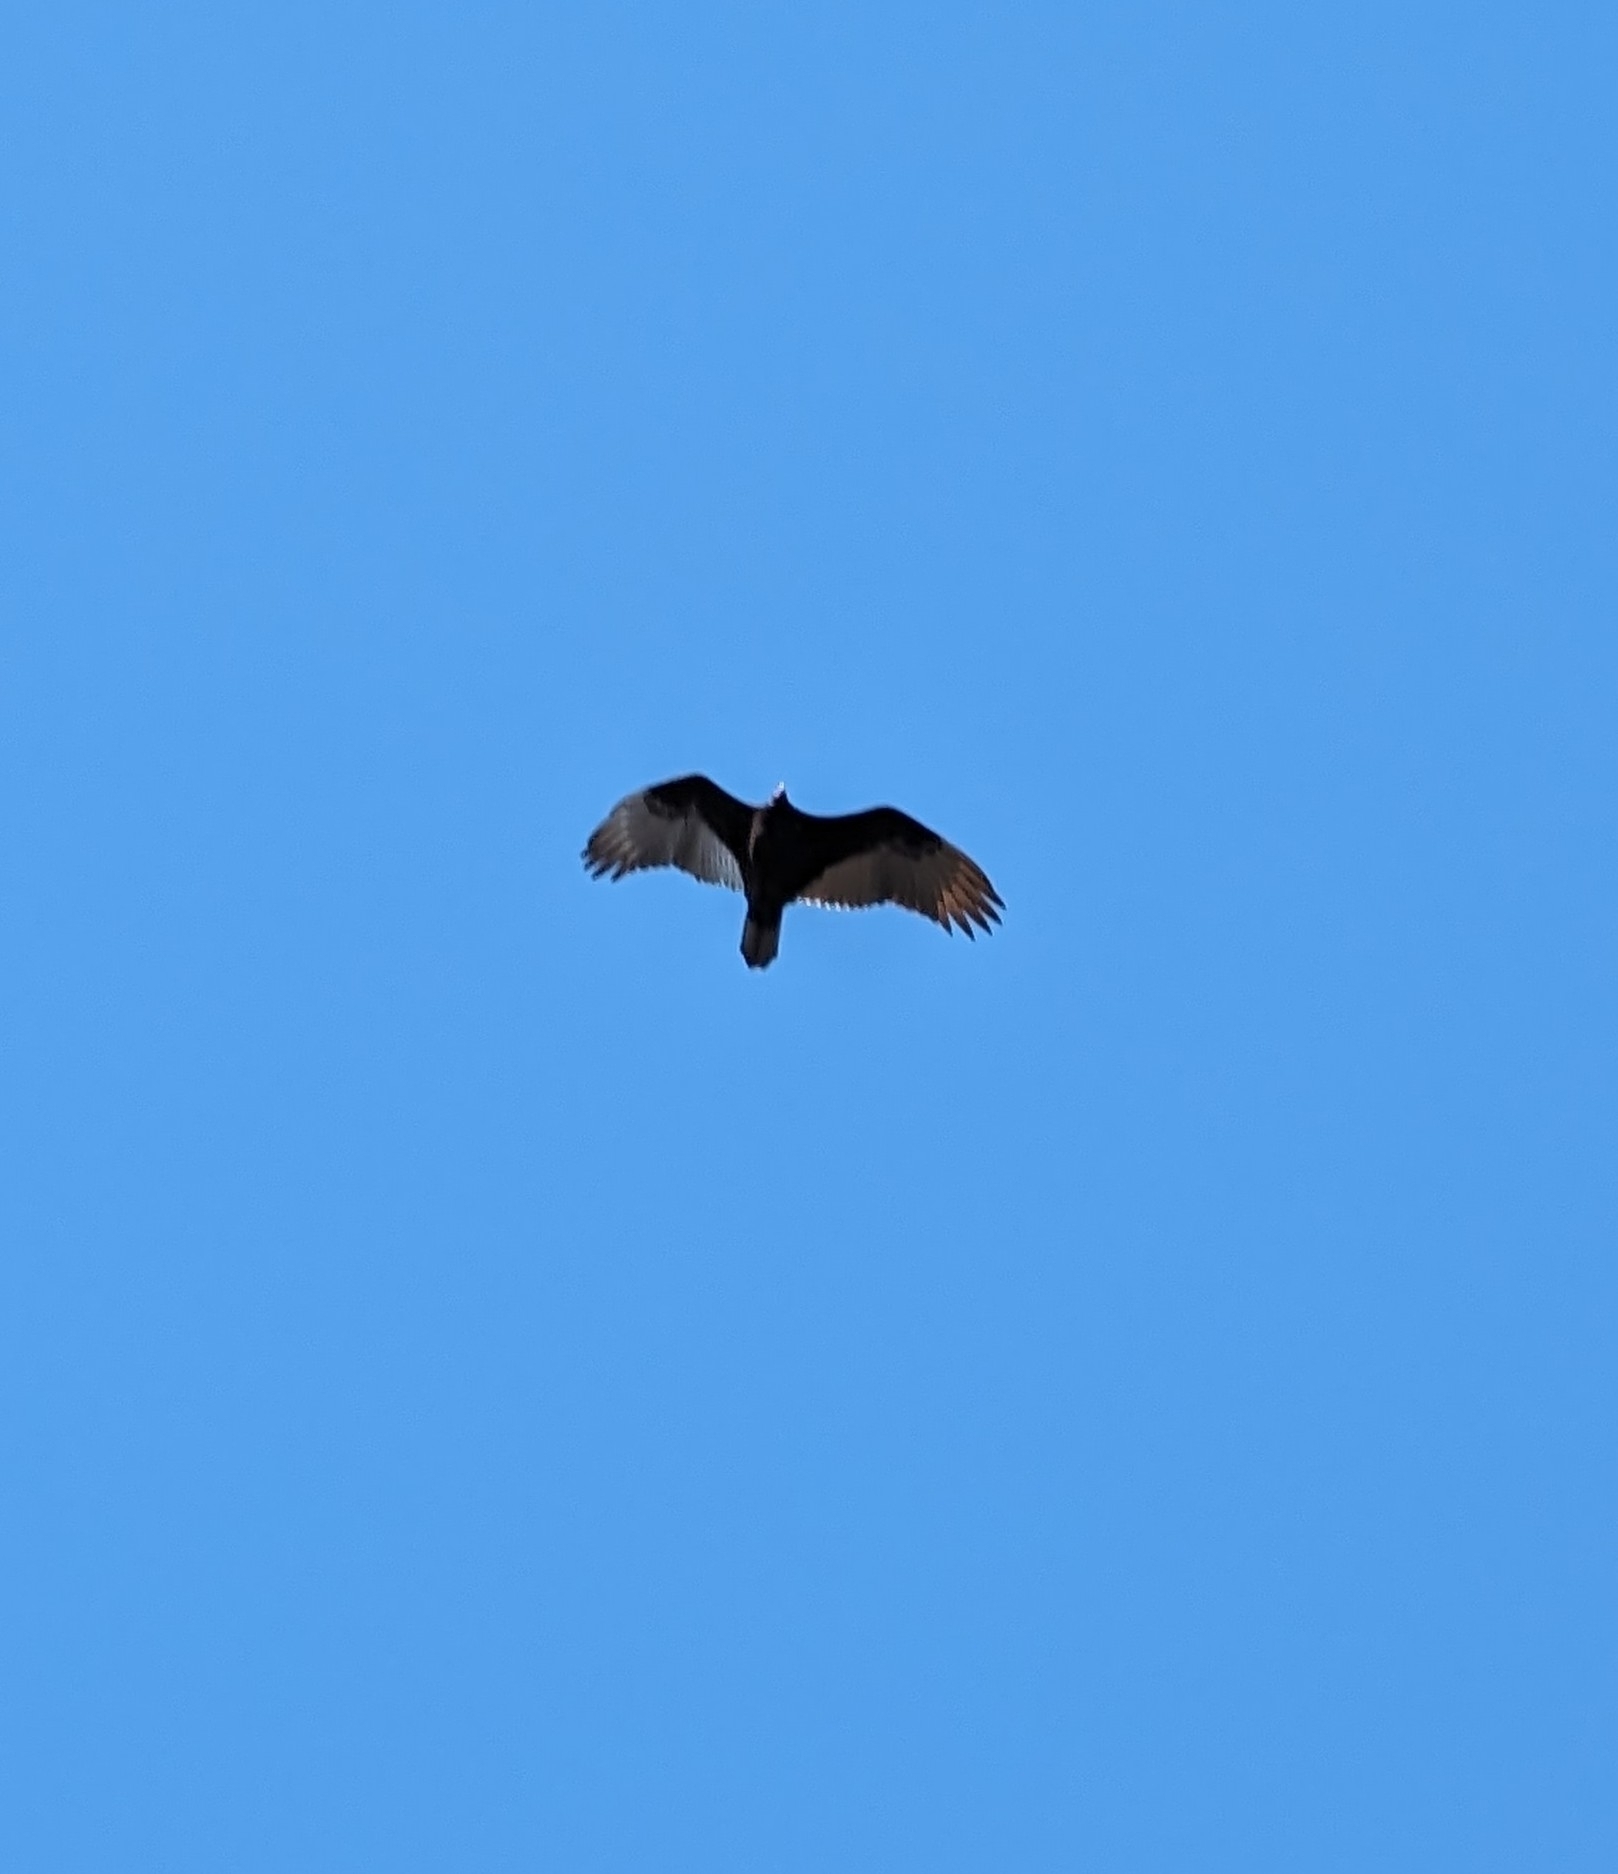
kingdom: Animalia
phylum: Chordata
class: Aves
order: Accipitriformes
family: Cathartidae
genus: Cathartes
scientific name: Cathartes aura
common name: Turkey vulture
